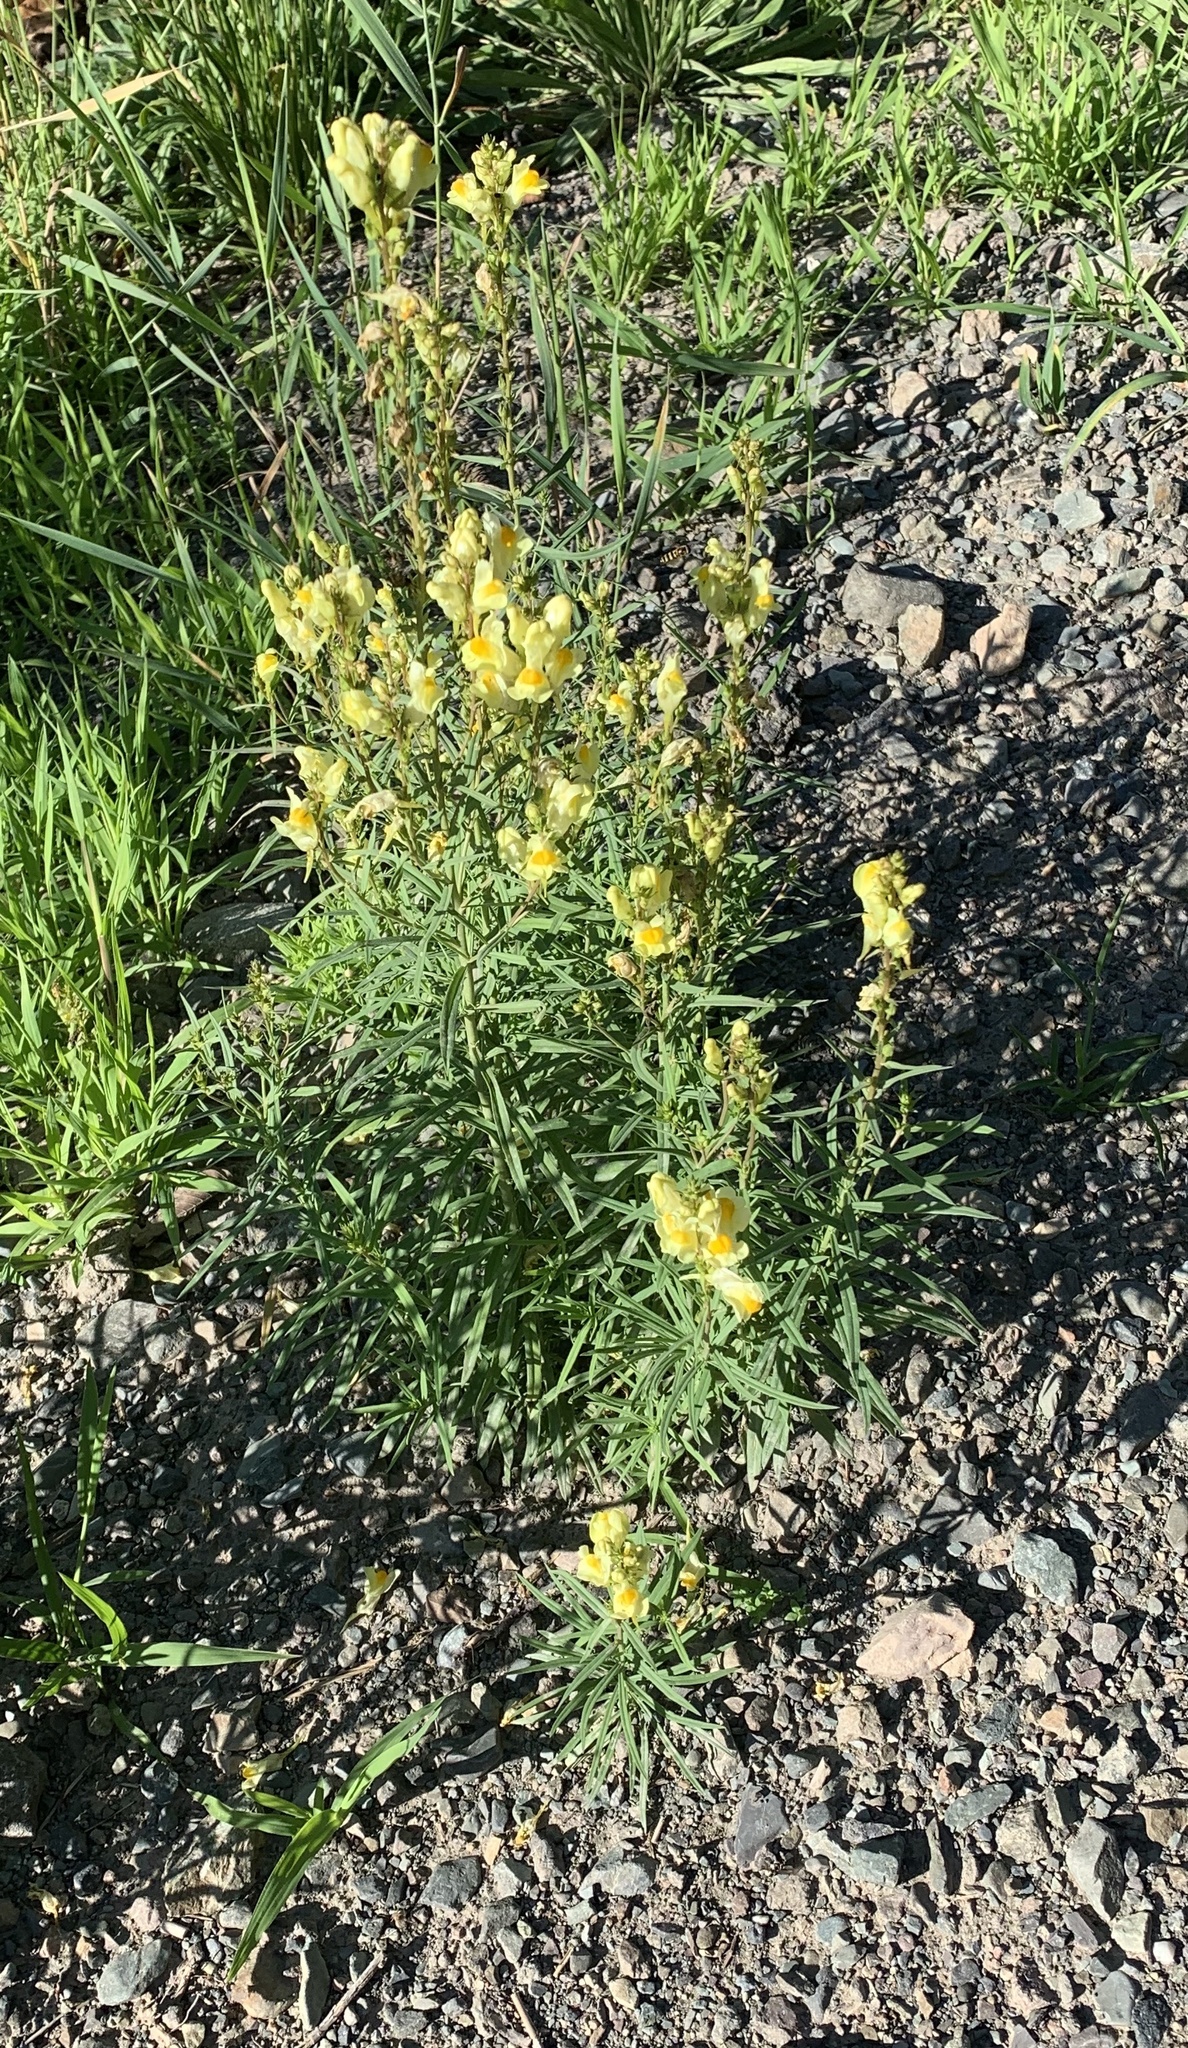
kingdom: Plantae
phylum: Tracheophyta
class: Magnoliopsida
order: Lamiales
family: Plantaginaceae
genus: Linaria
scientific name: Linaria vulgaris
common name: Butter and eggs
